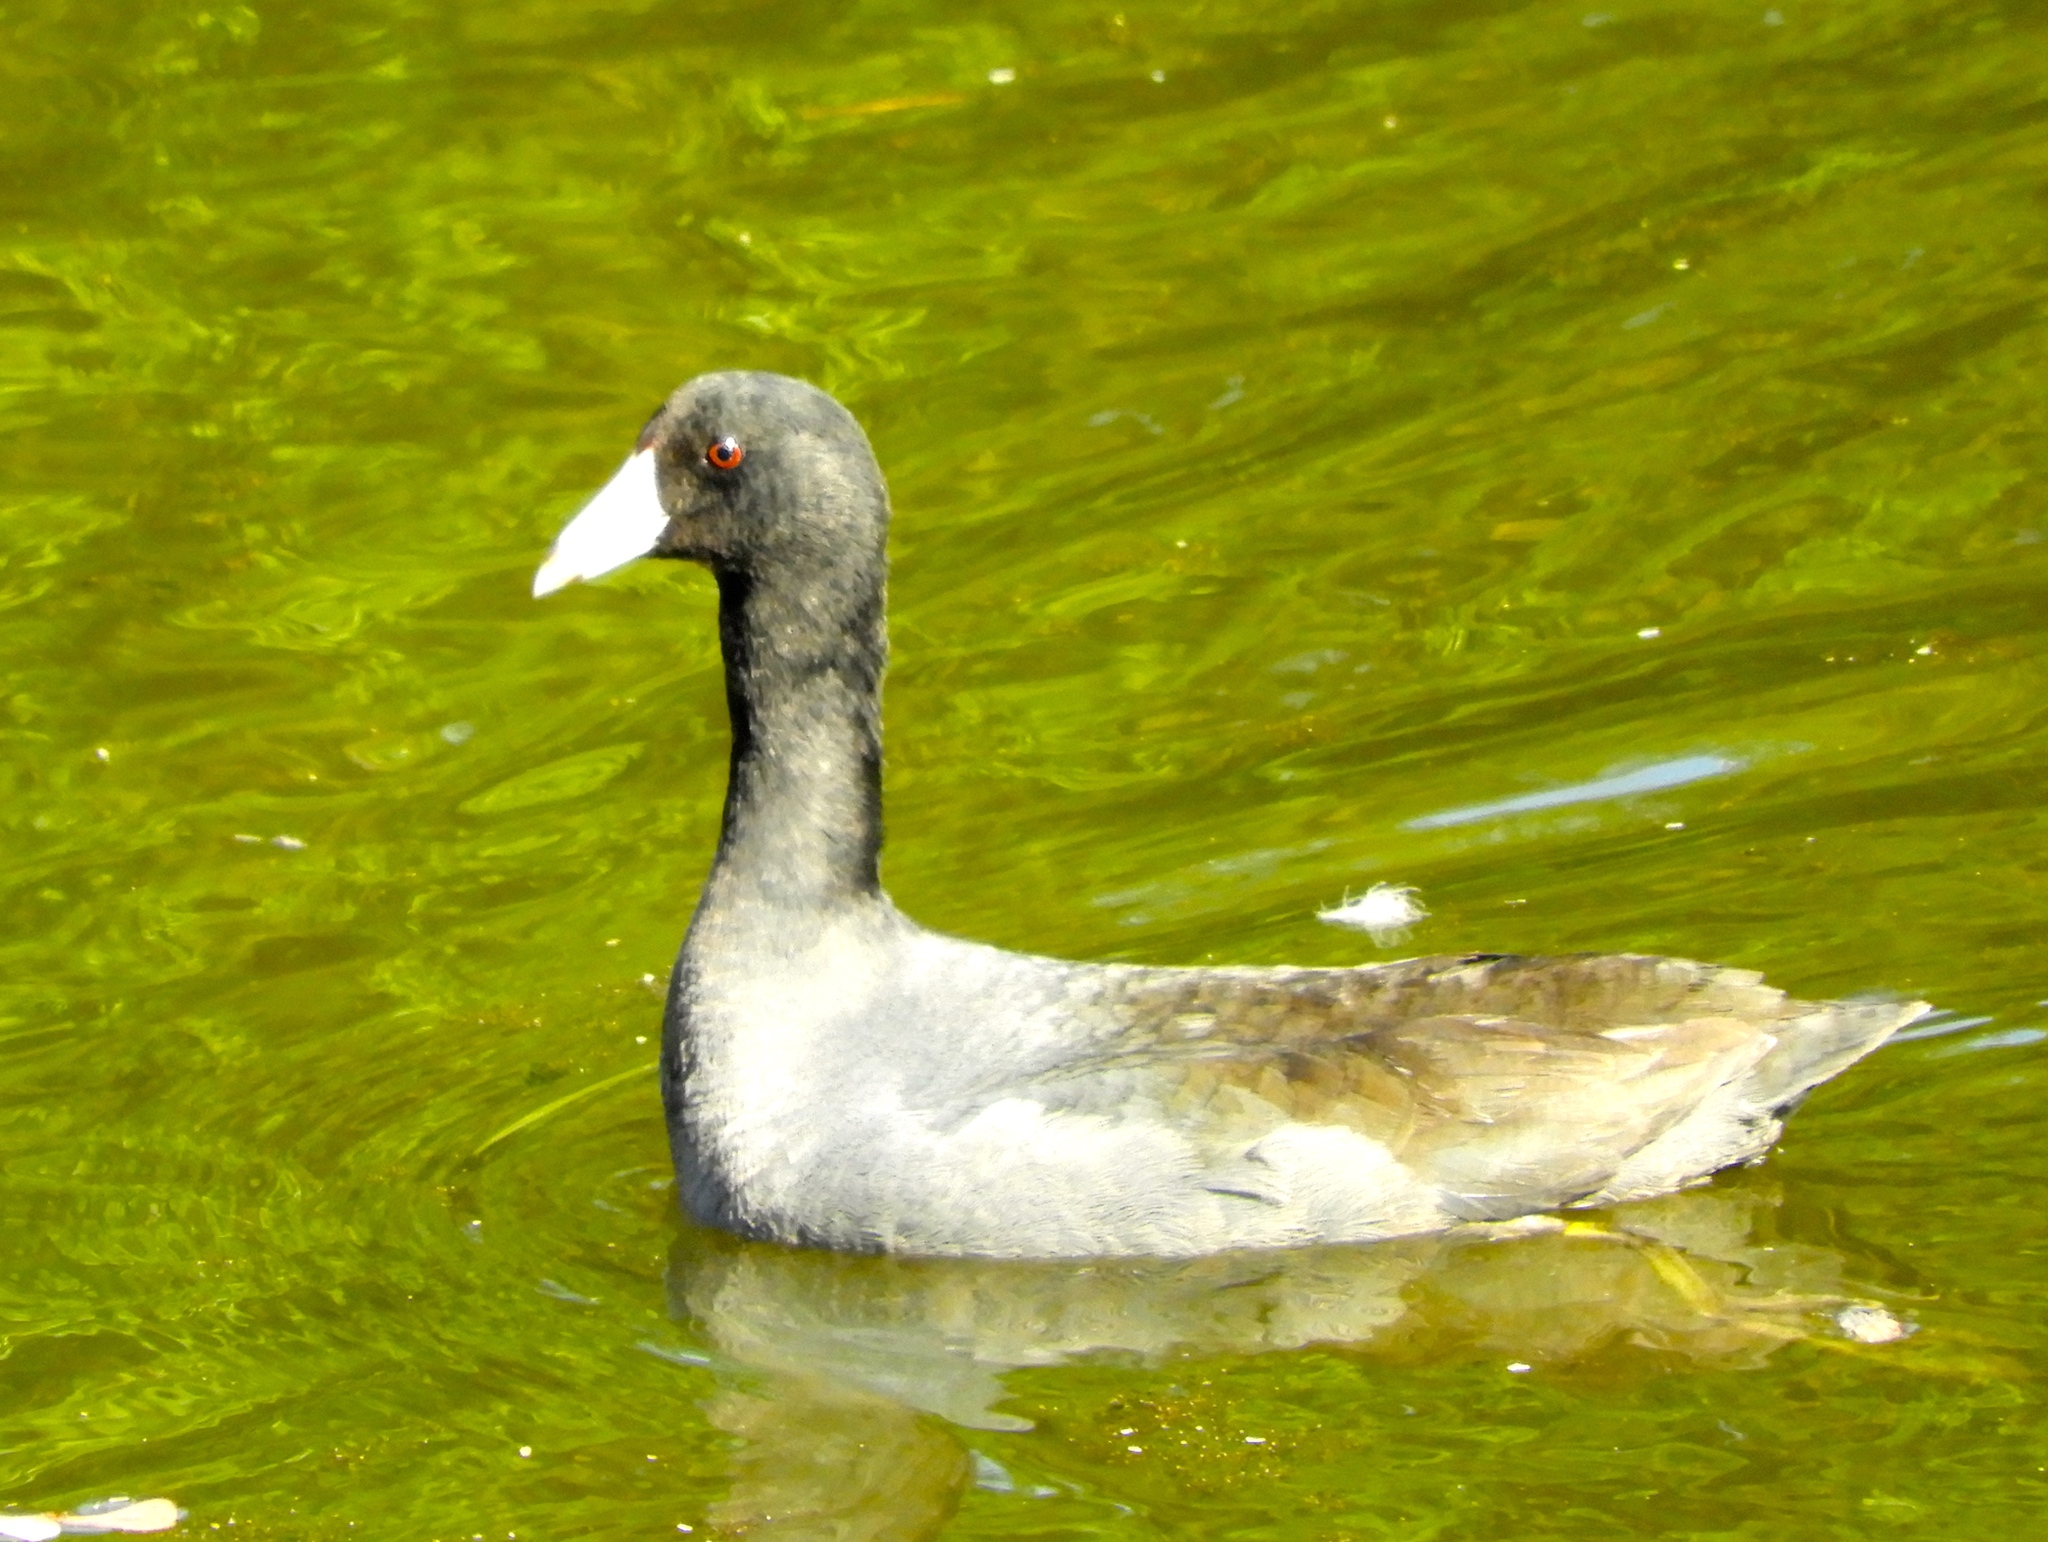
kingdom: Animalia
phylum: Chordata
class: Aves
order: Gruiformes
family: Rallidae
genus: Fulica
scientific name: Fulica americana
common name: American coot
